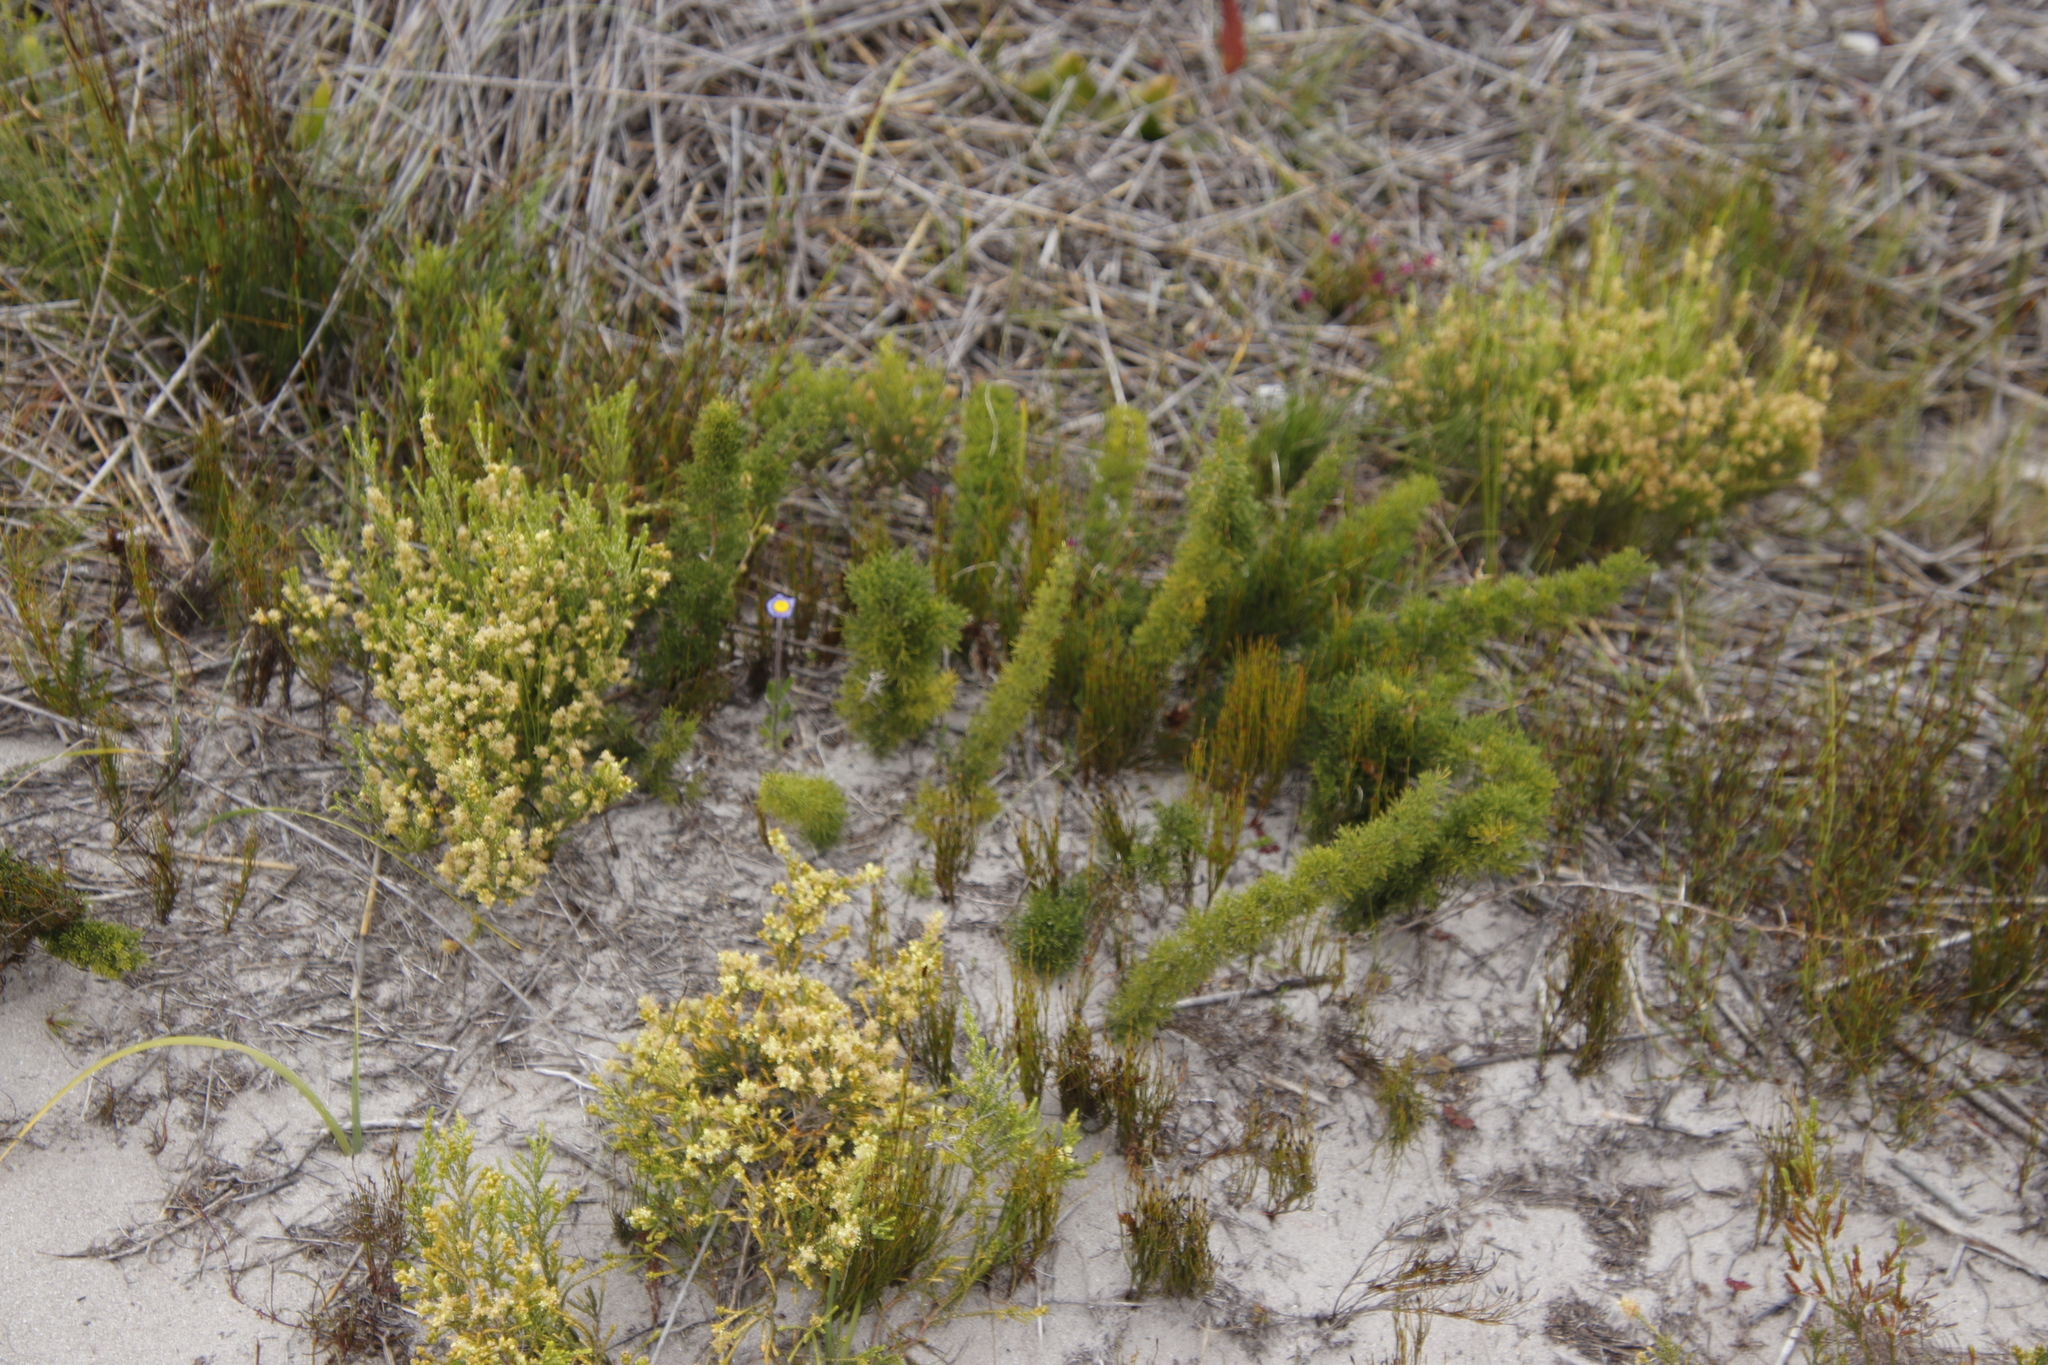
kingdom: Plantae
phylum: Tracheophyta
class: Liliopsida
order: Asparagales
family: Asparagaceae
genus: Asparagus
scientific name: Asparagus suaveolens
